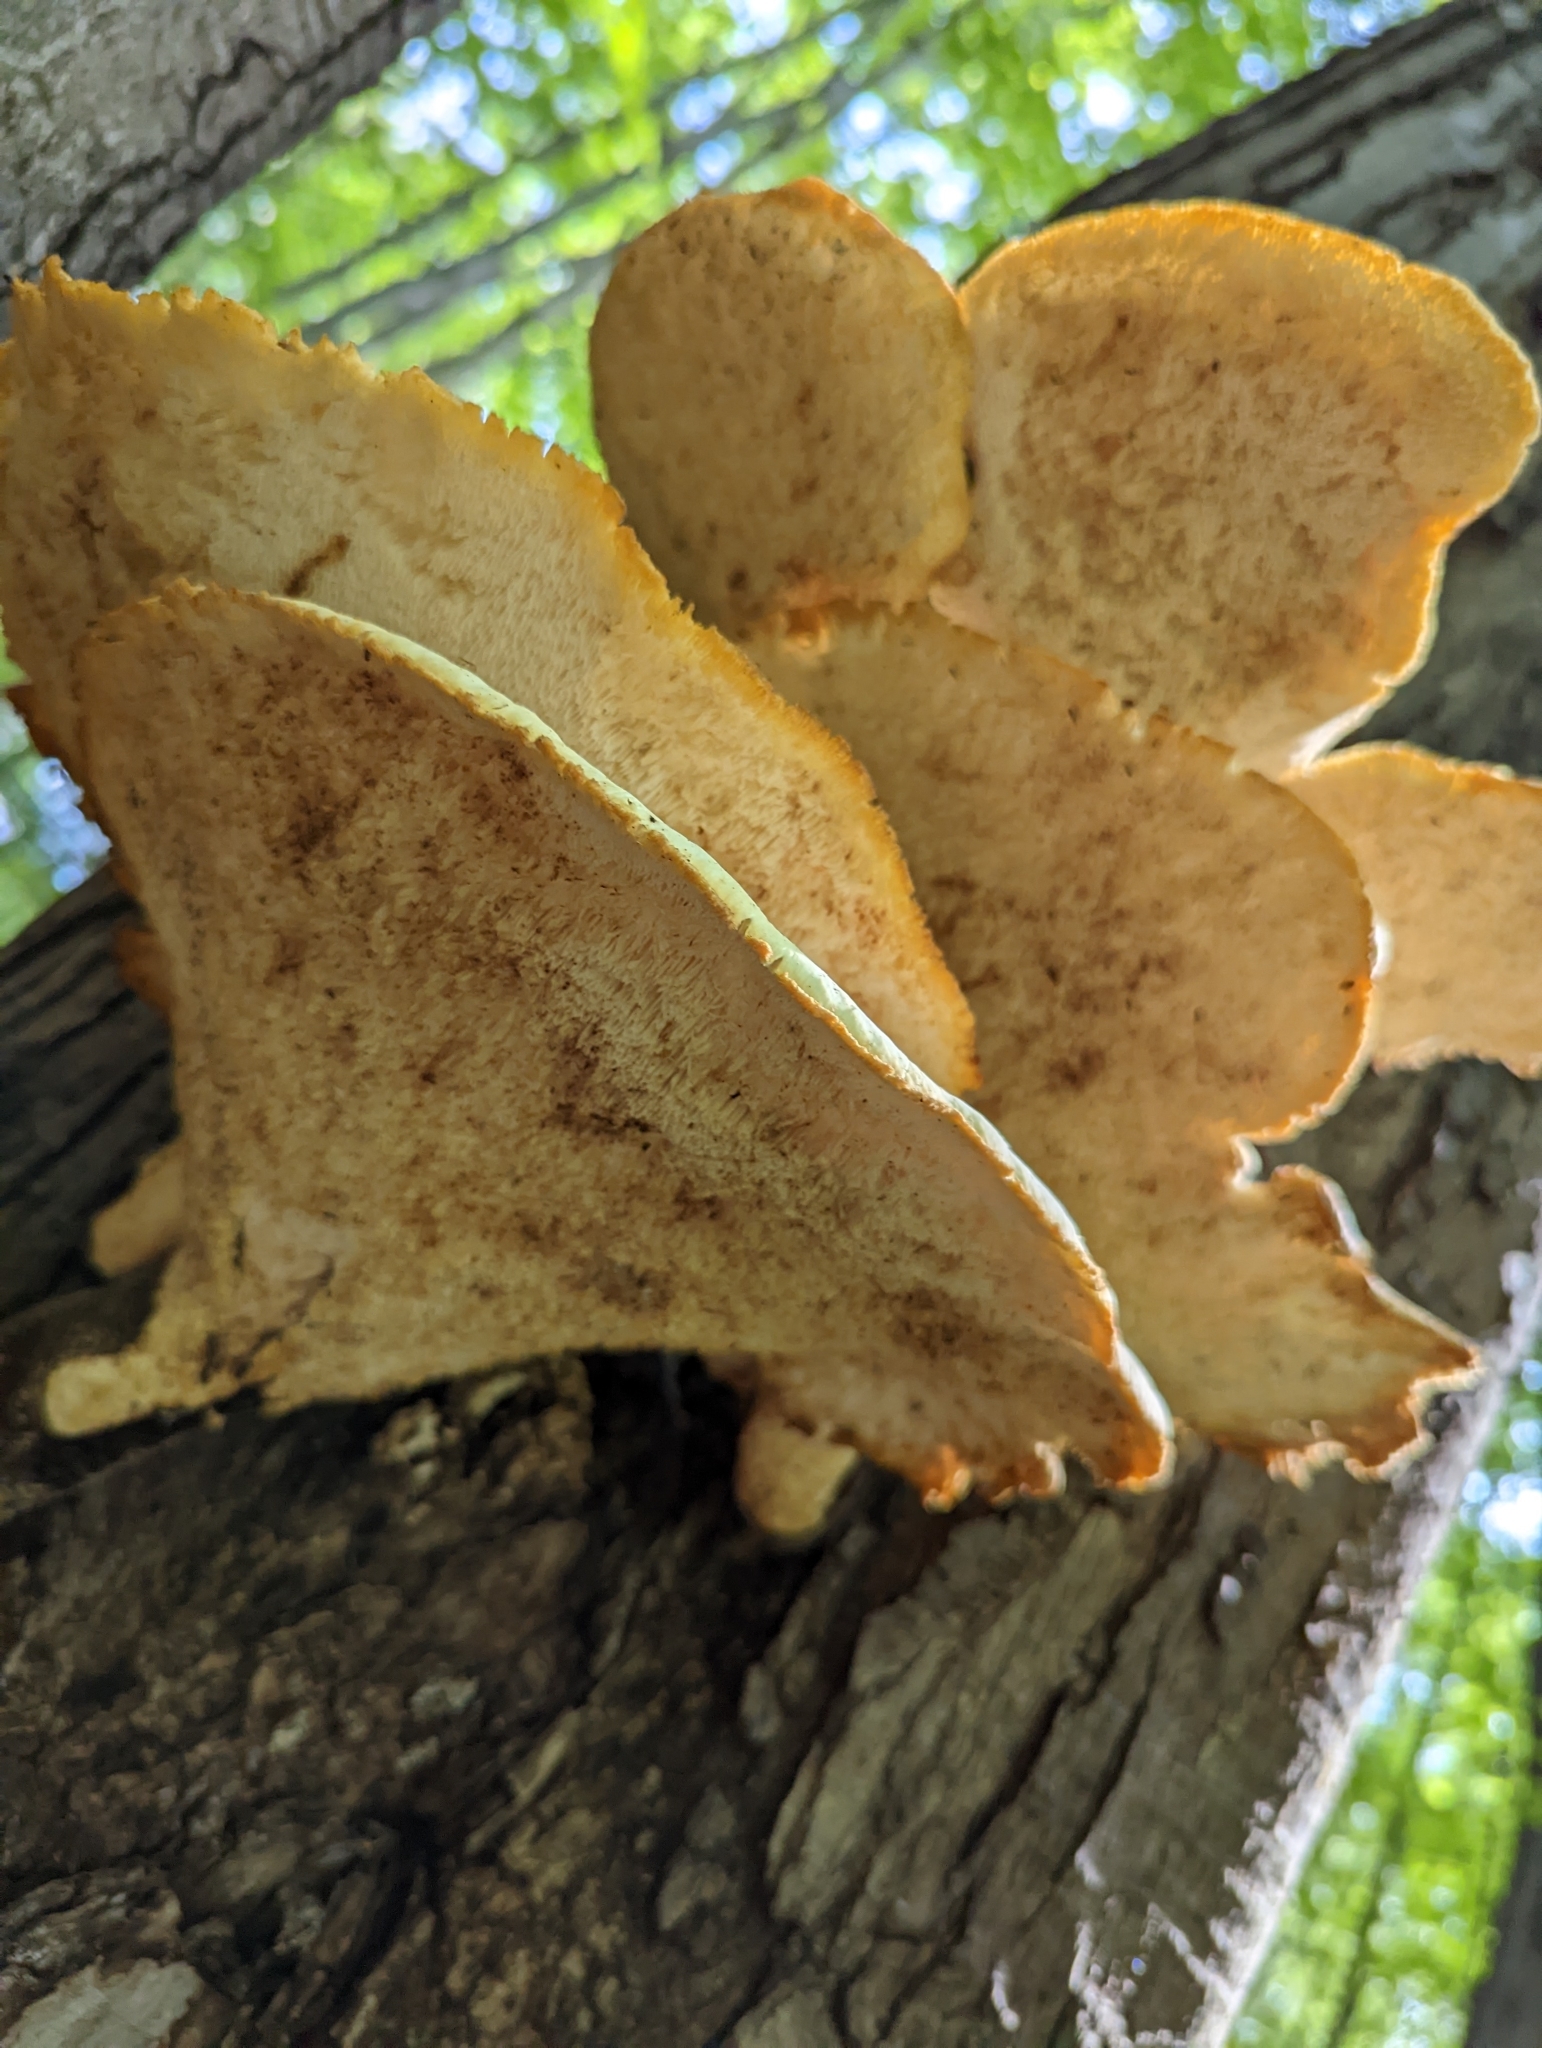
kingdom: Fungi
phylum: Basidiomycota
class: Agaricomycetes
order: Polyporales
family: Polyporaceae
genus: Cerioporus
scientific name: Cerioporus squamosus
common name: Dryad's saddle
